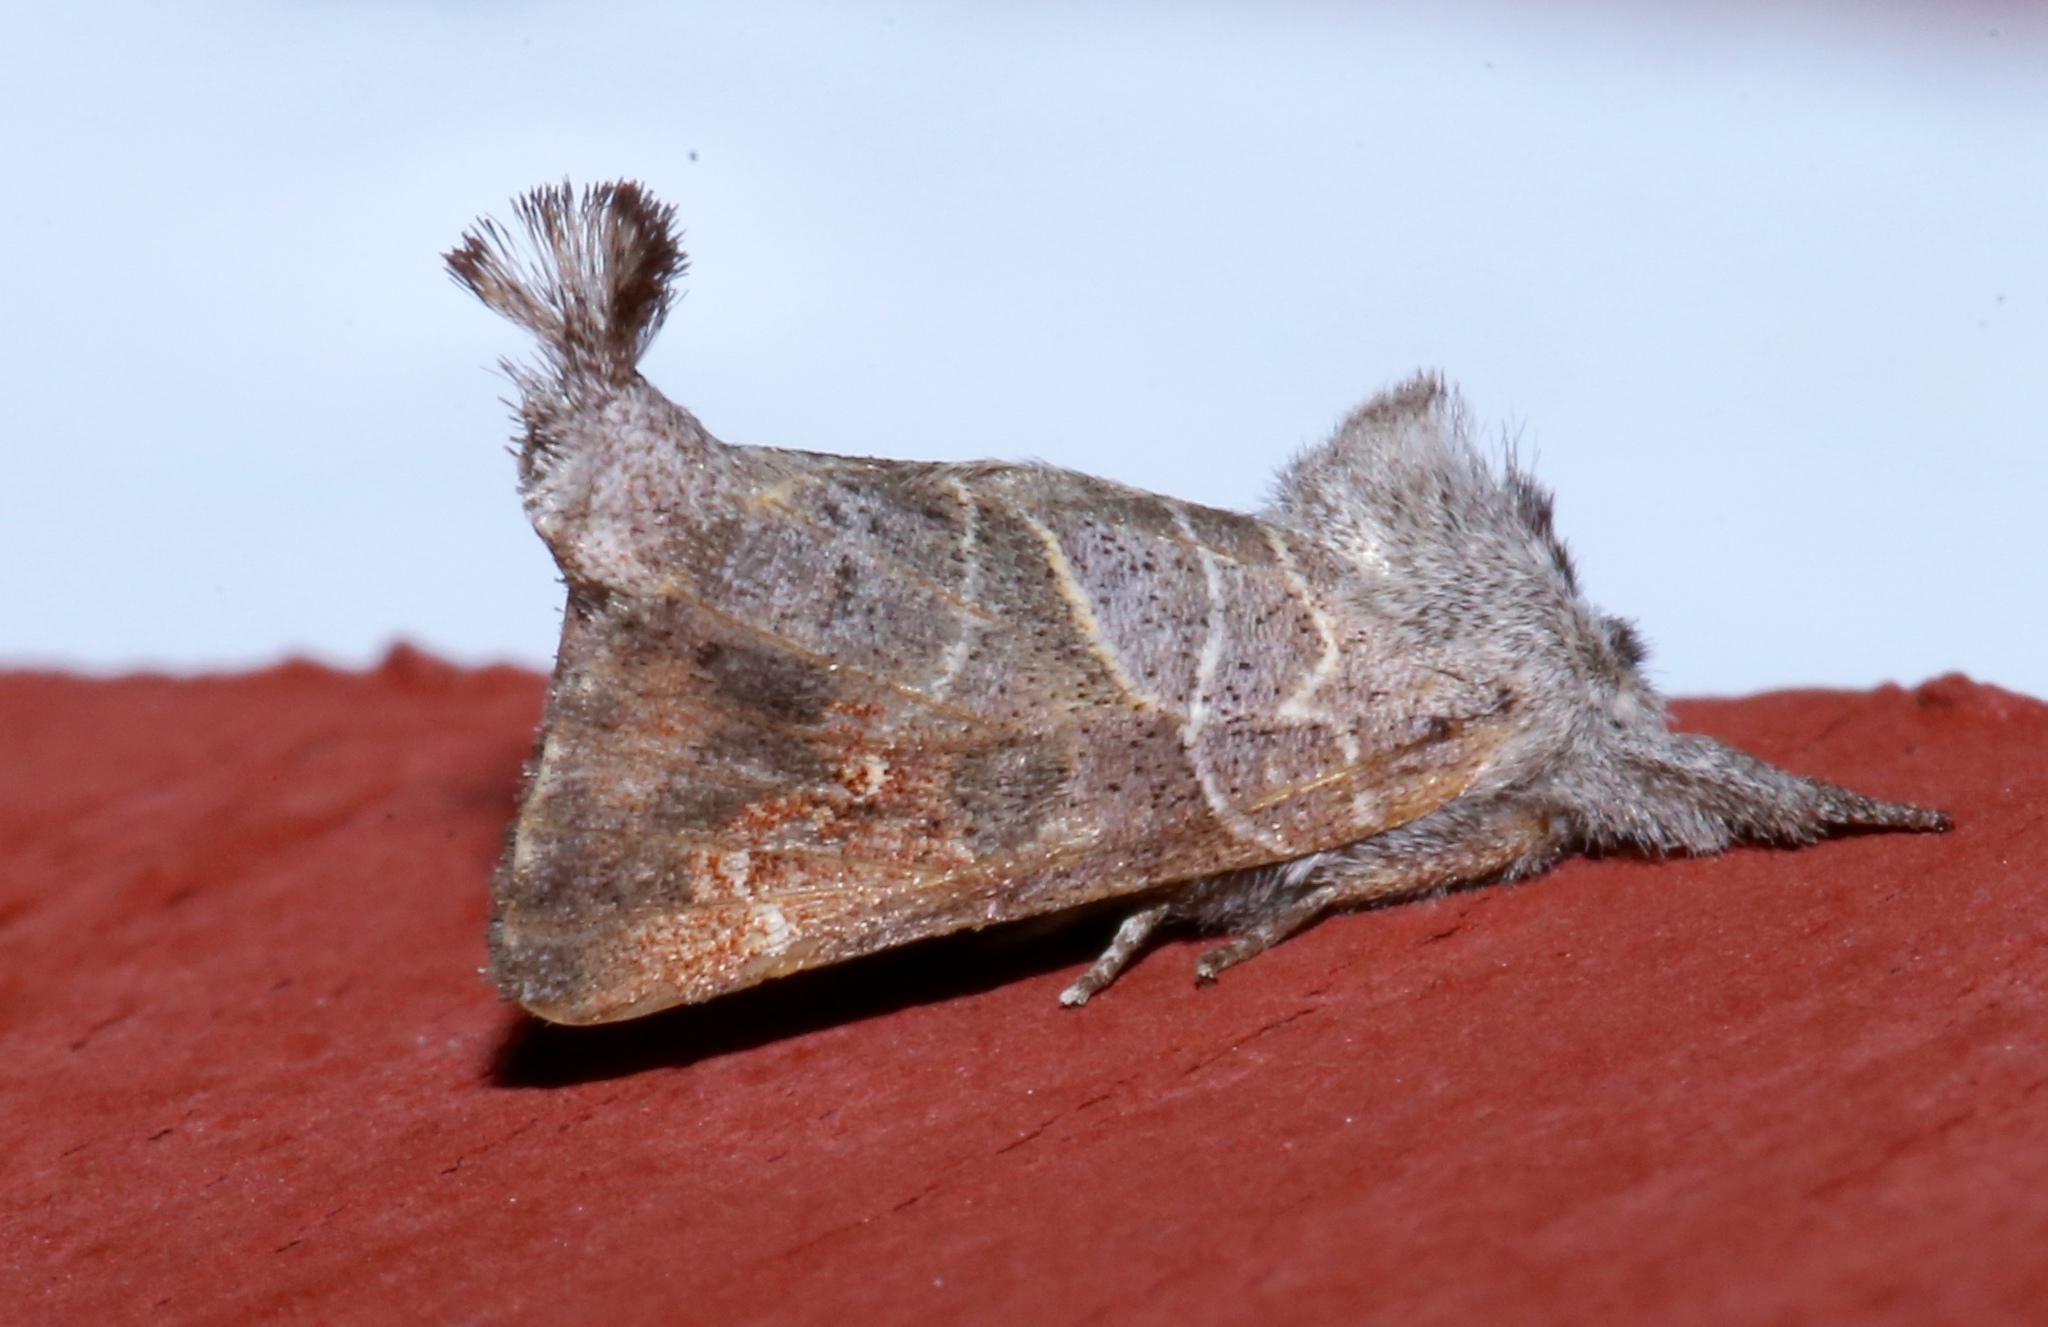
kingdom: Animalia
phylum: Arthropoda
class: Insecta
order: Lepidoptera
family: Notodontidae
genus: Clostera
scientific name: Clostera apicalis
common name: Apical prominent
